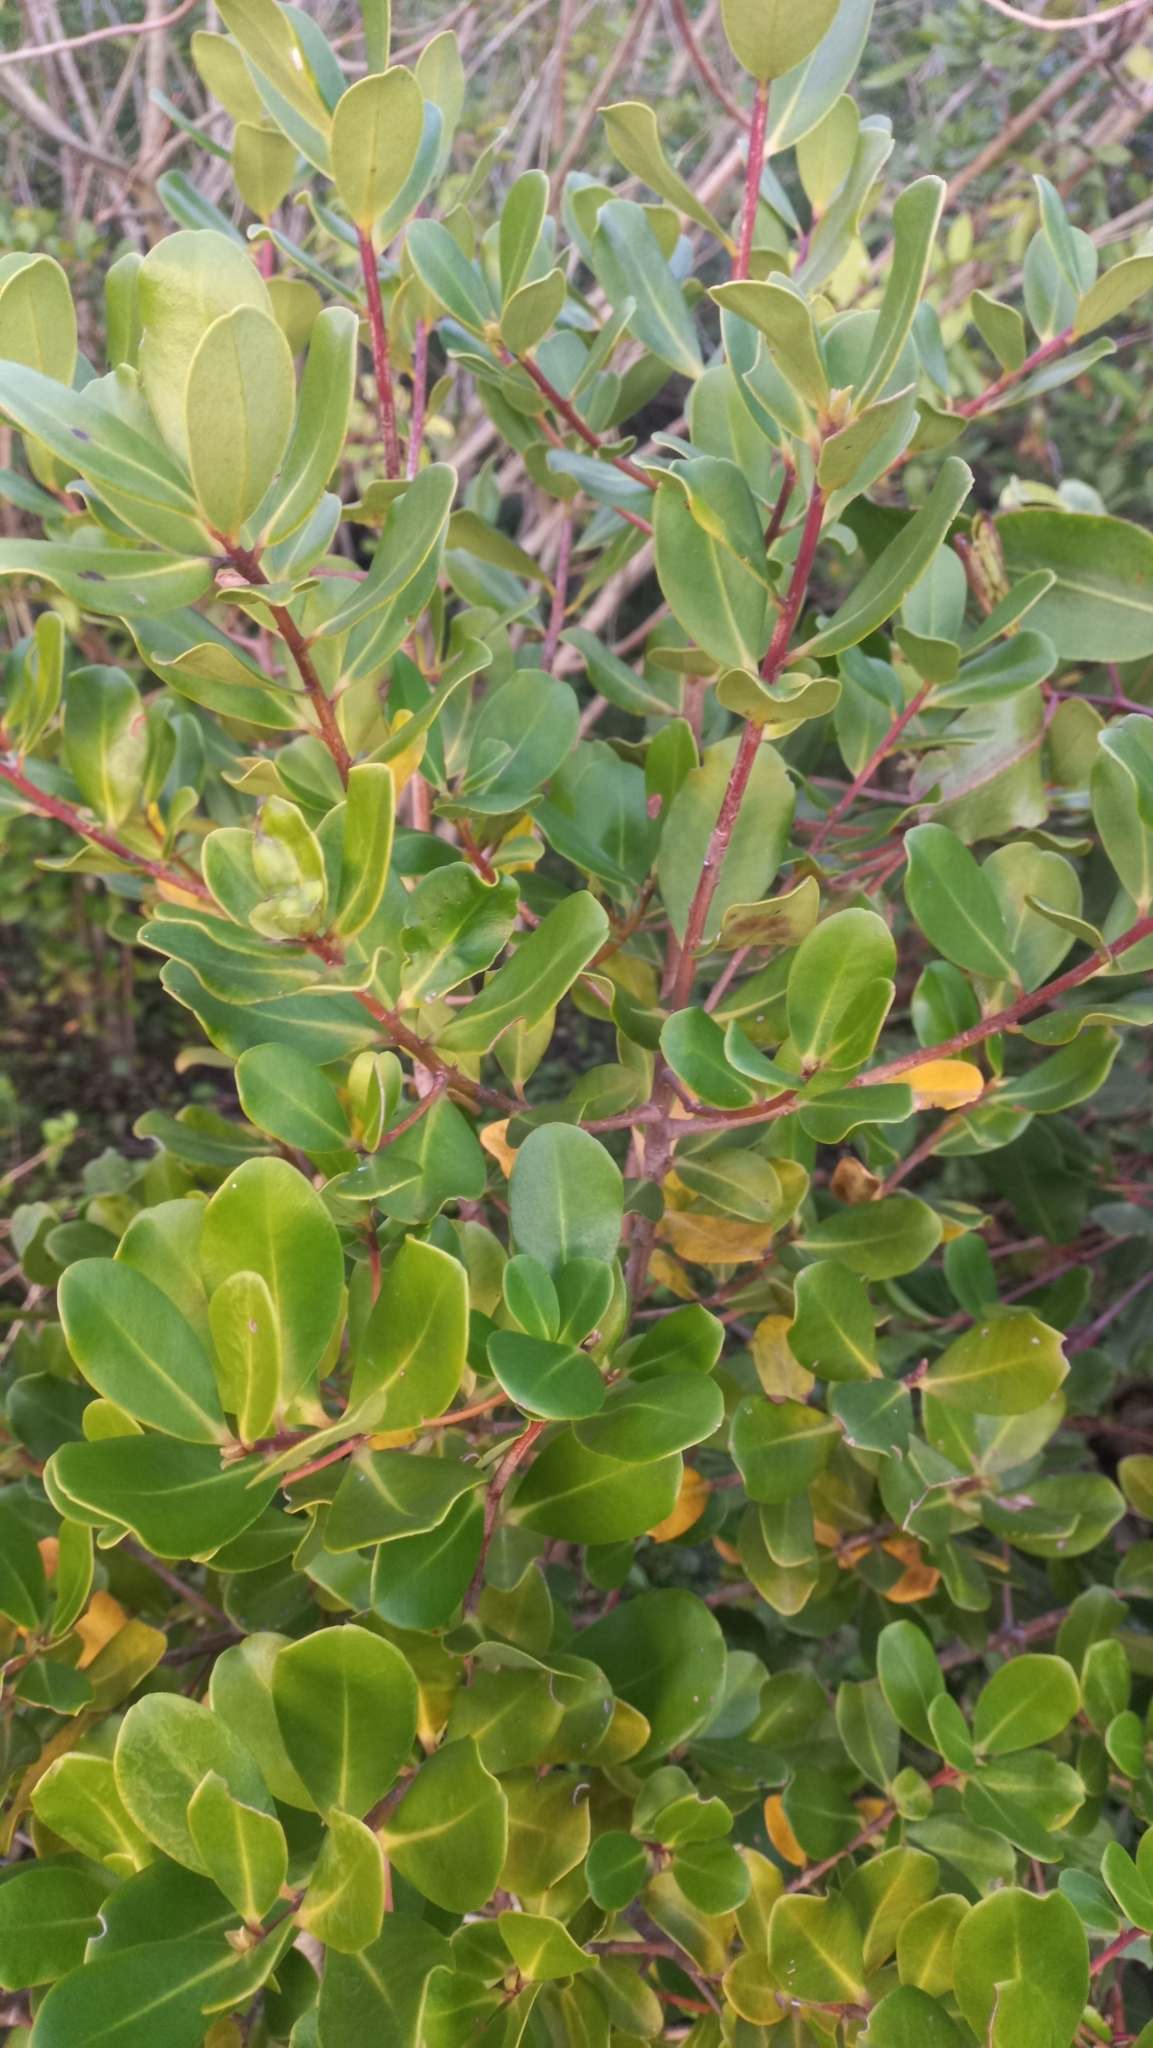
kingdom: Plantae
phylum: Tracheophyta
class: Magnoliopsida
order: Ericales
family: Primulaceae
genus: Myrsine
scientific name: Myrsine parvifolia
